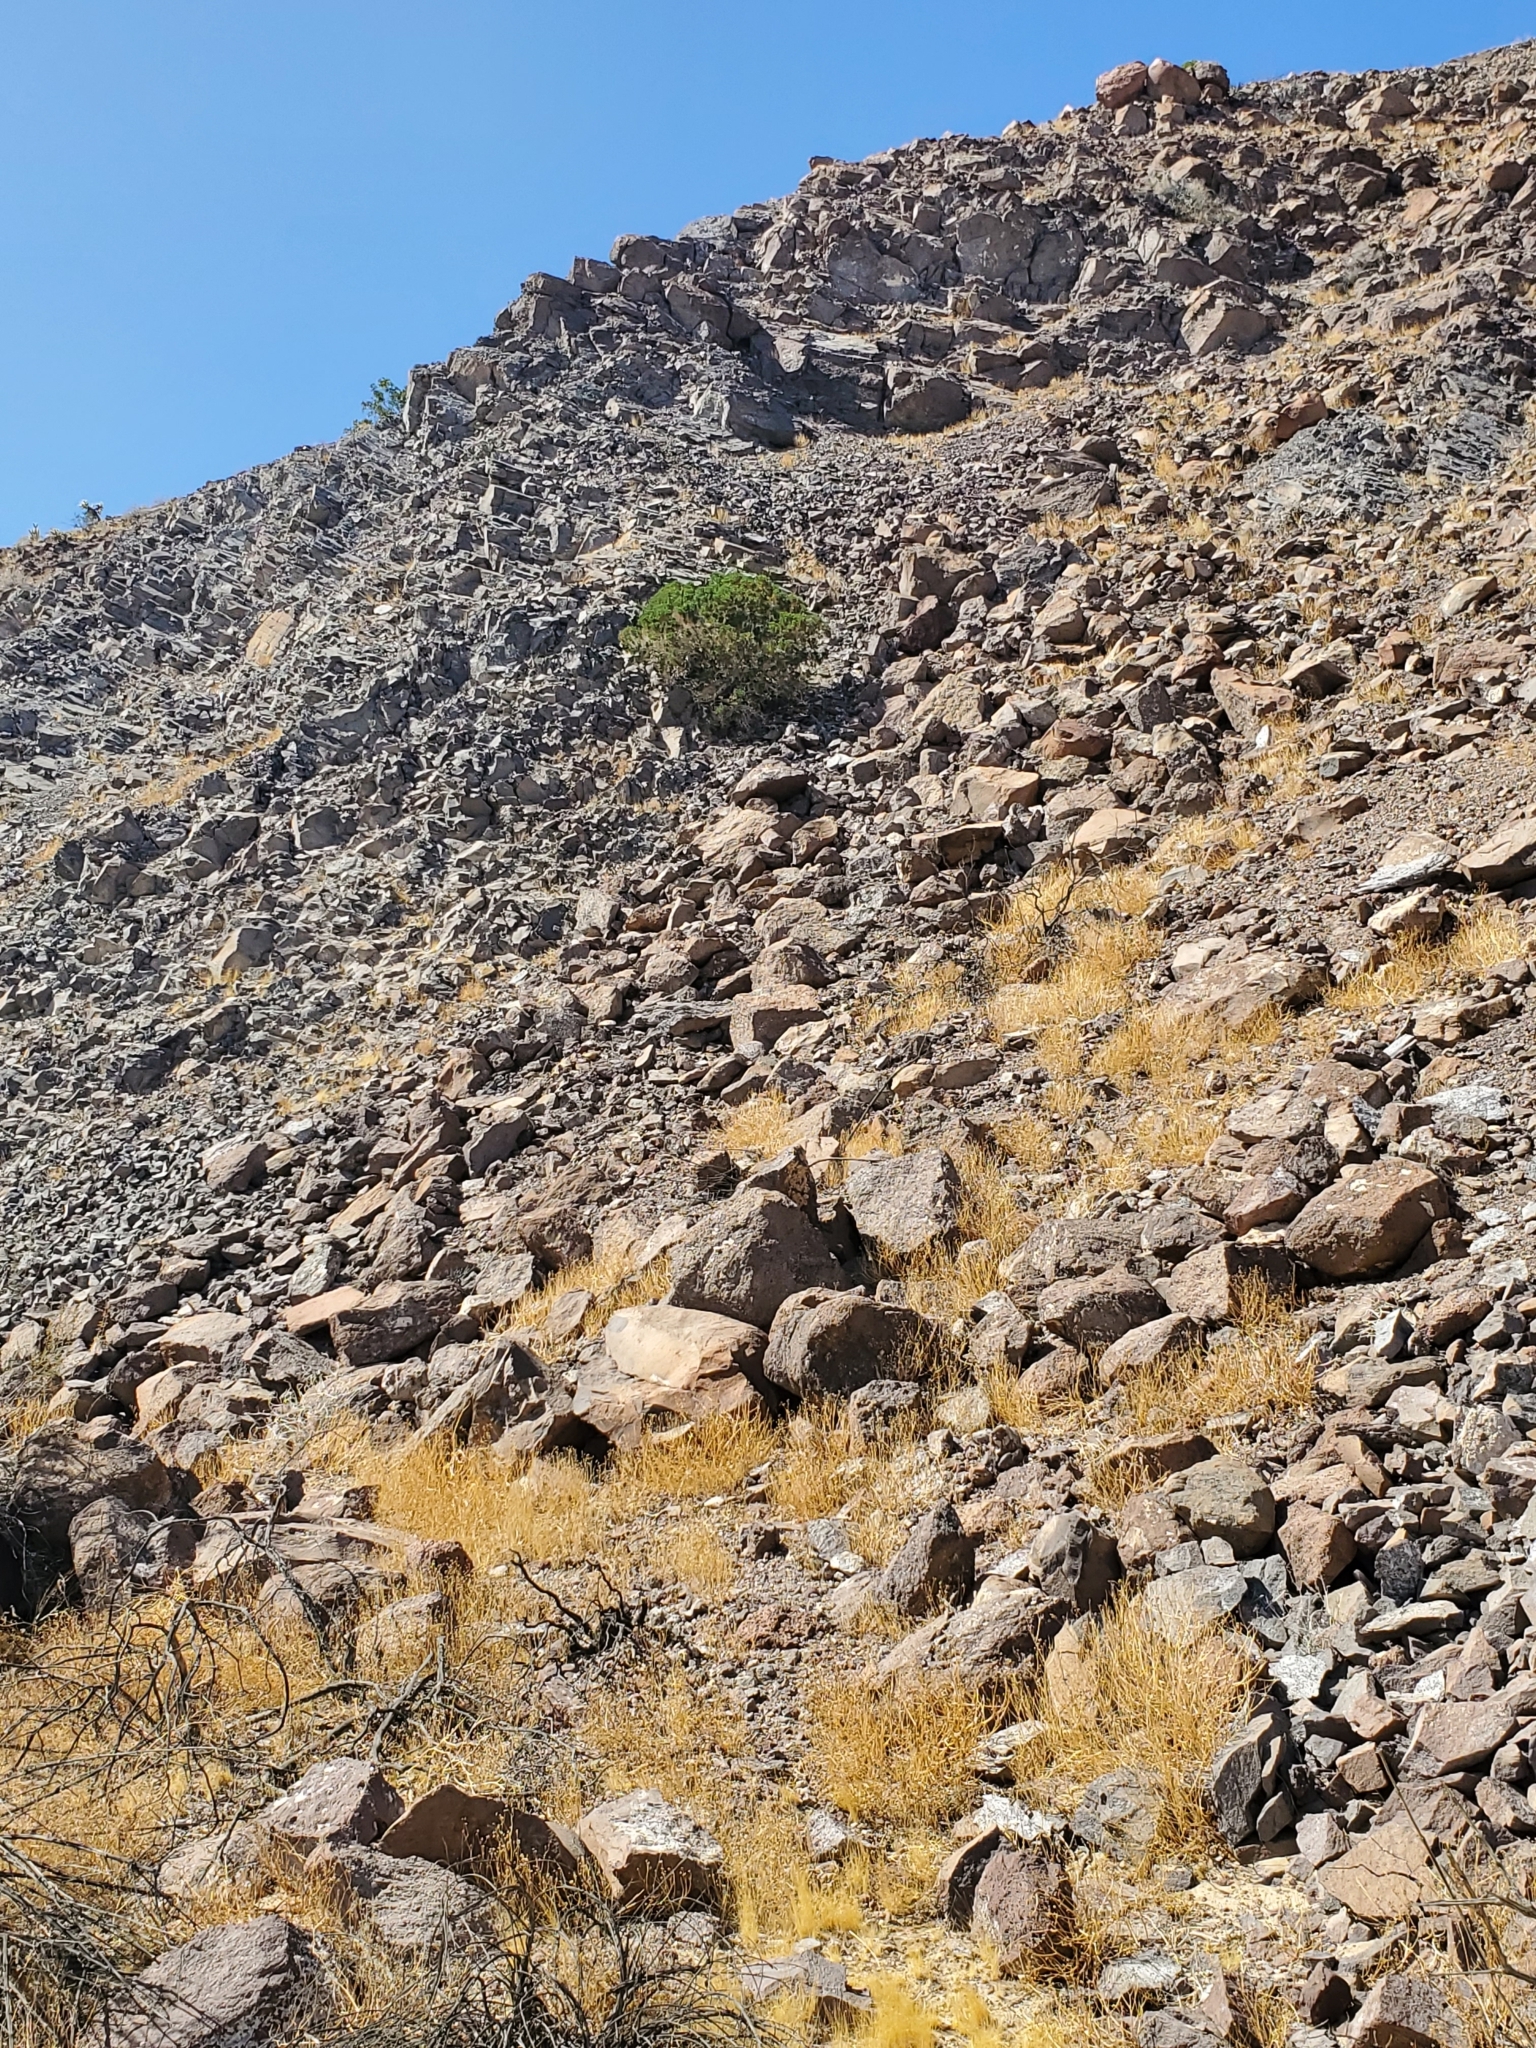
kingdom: Plantae
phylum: Tracheophyta
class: Magnoliopsida
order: Asterales
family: Asteraceae
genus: Peucephyllum
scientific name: Peucephyllum schottii
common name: Pygmy-cedar
